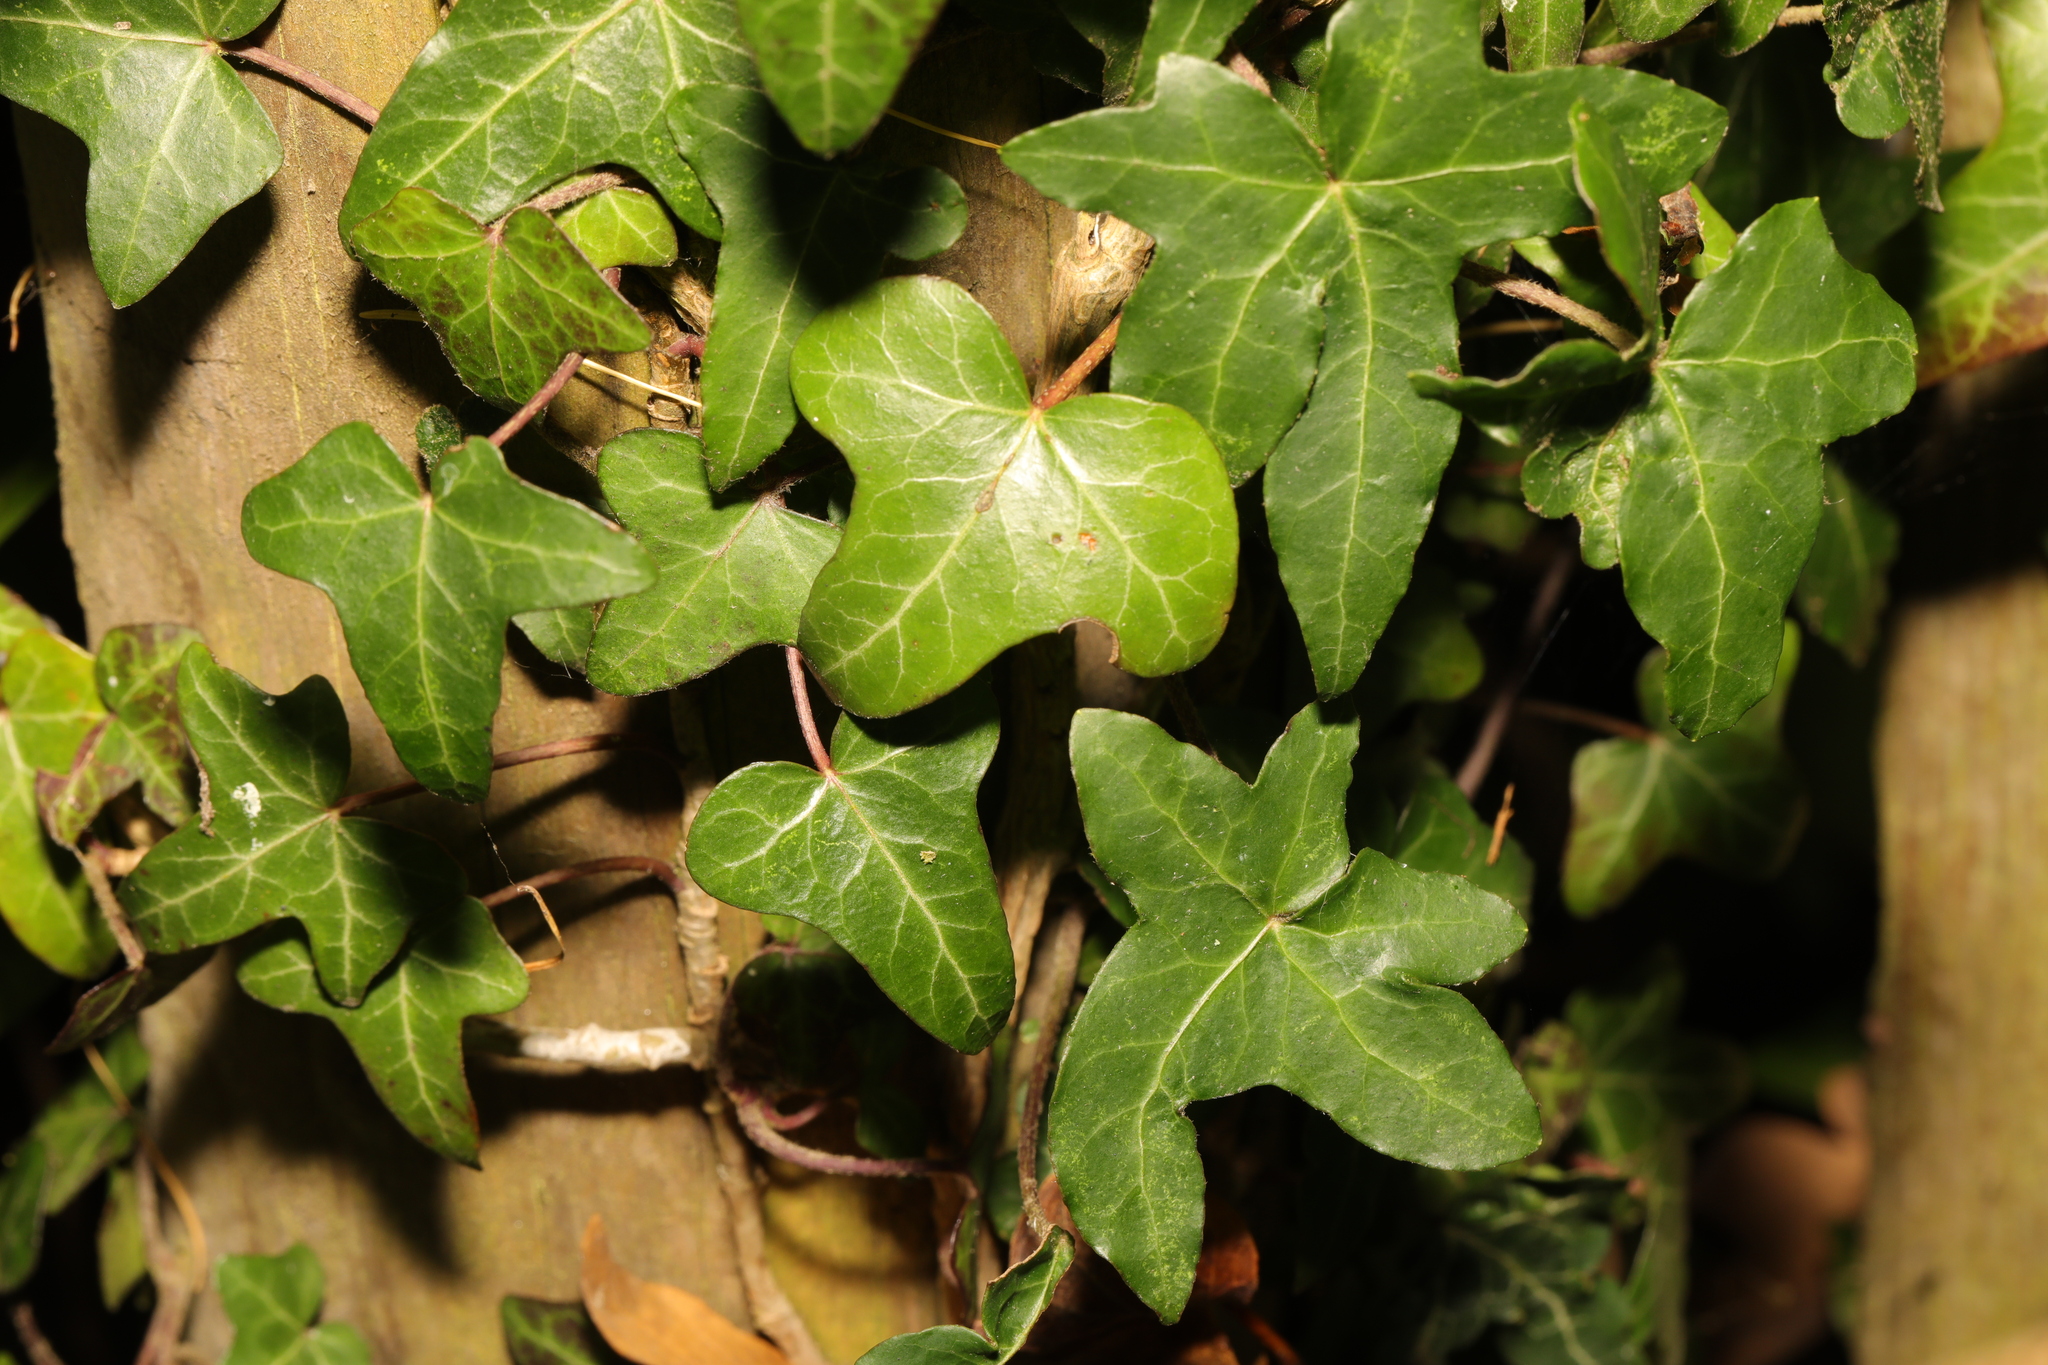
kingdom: Plantae
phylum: Tracheophyta
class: Magnoliopsida
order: Apiales
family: Araliaceae
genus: Hedera
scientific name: Hedera helix
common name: Ivy
